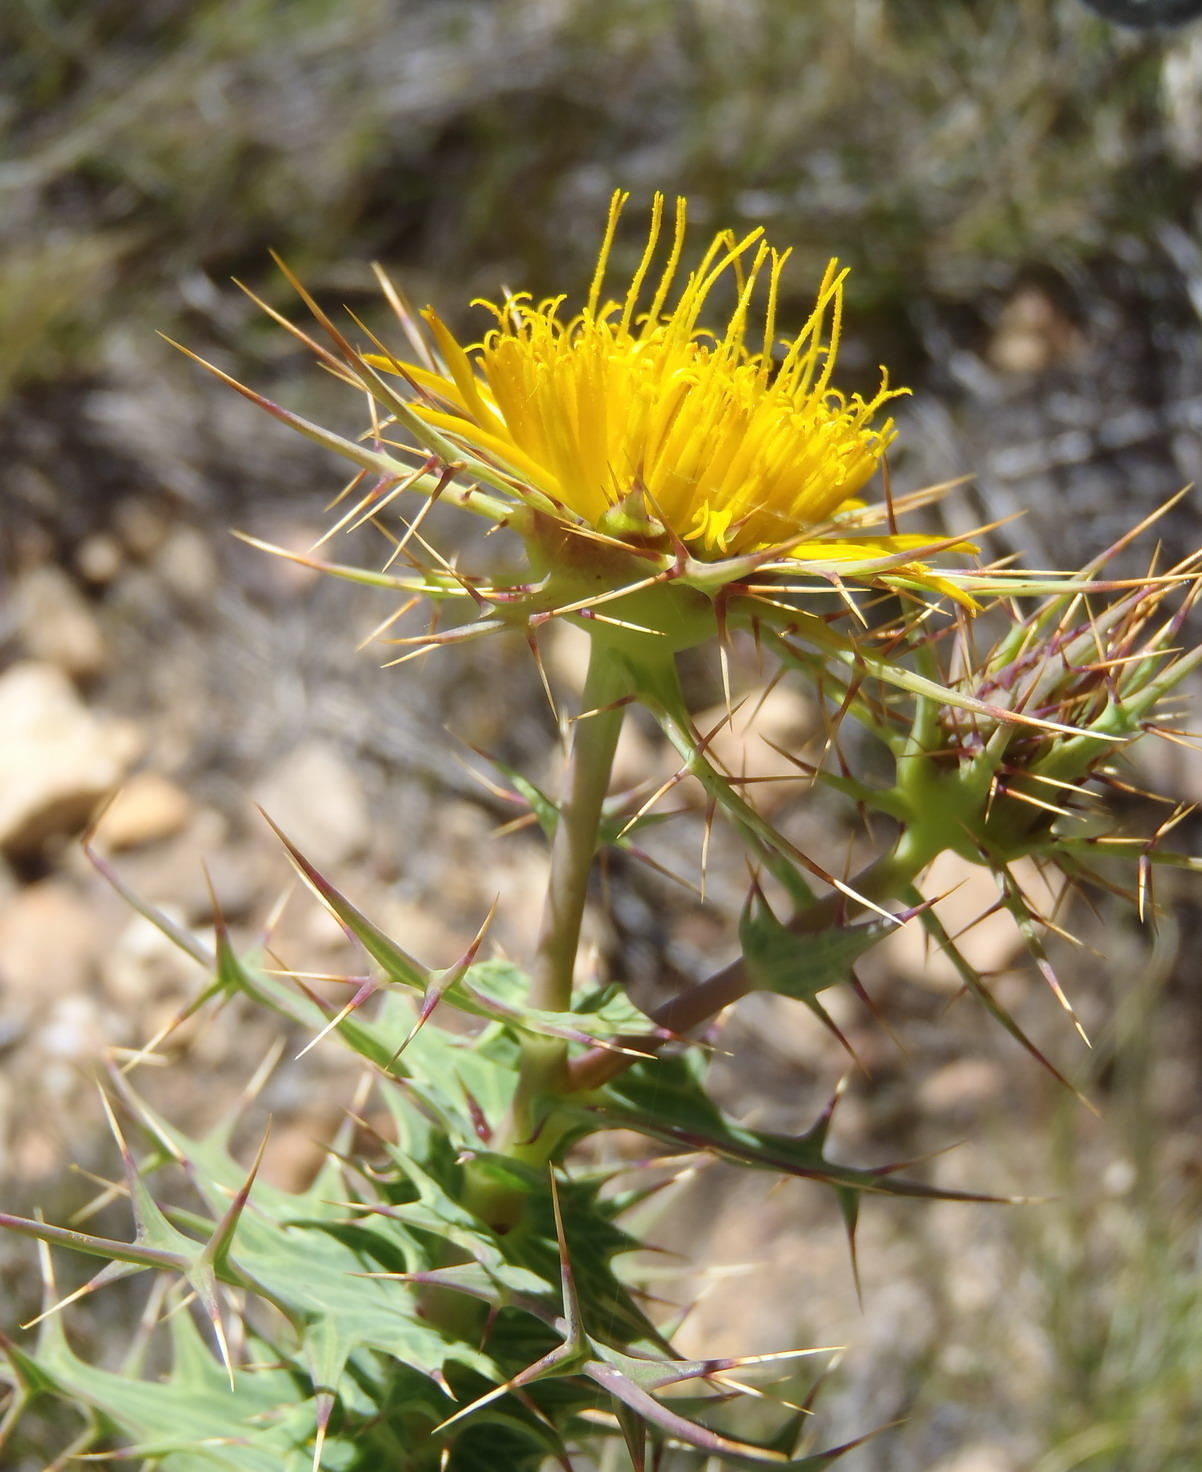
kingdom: Plantae
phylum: Tracheophyta
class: Magnoliopsida
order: Asterales
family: Asteraceae
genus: Berkheya
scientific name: Berkheya cruciata
